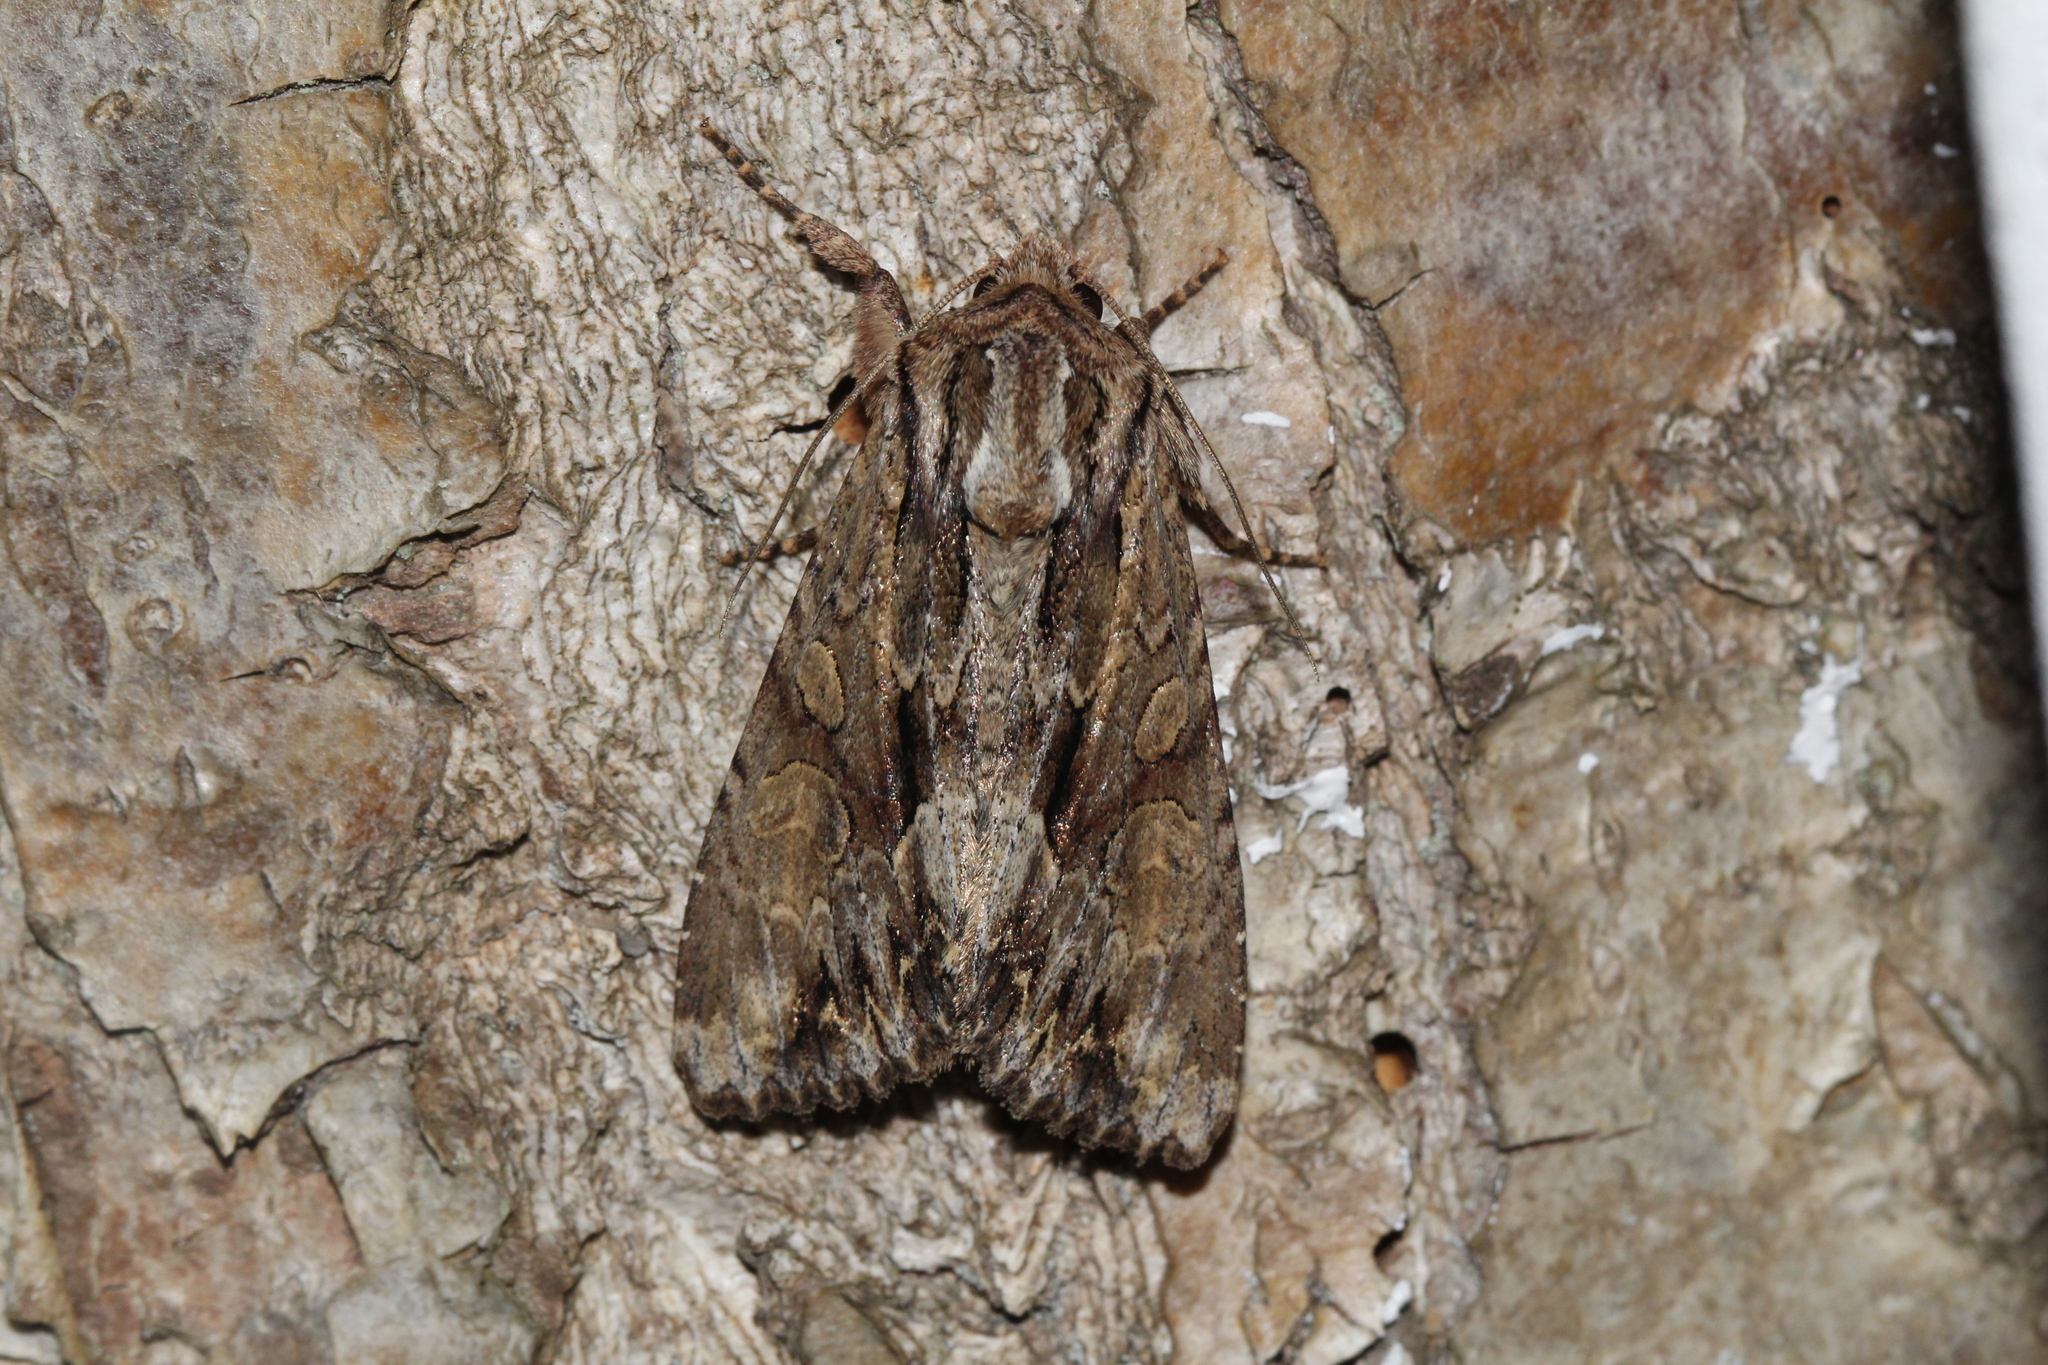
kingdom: Animalia
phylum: Arthropoda
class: Insecta
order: Lepidoptera
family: Noctuidae
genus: Apamea
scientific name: Apamea monoglypha
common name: Dark arches
